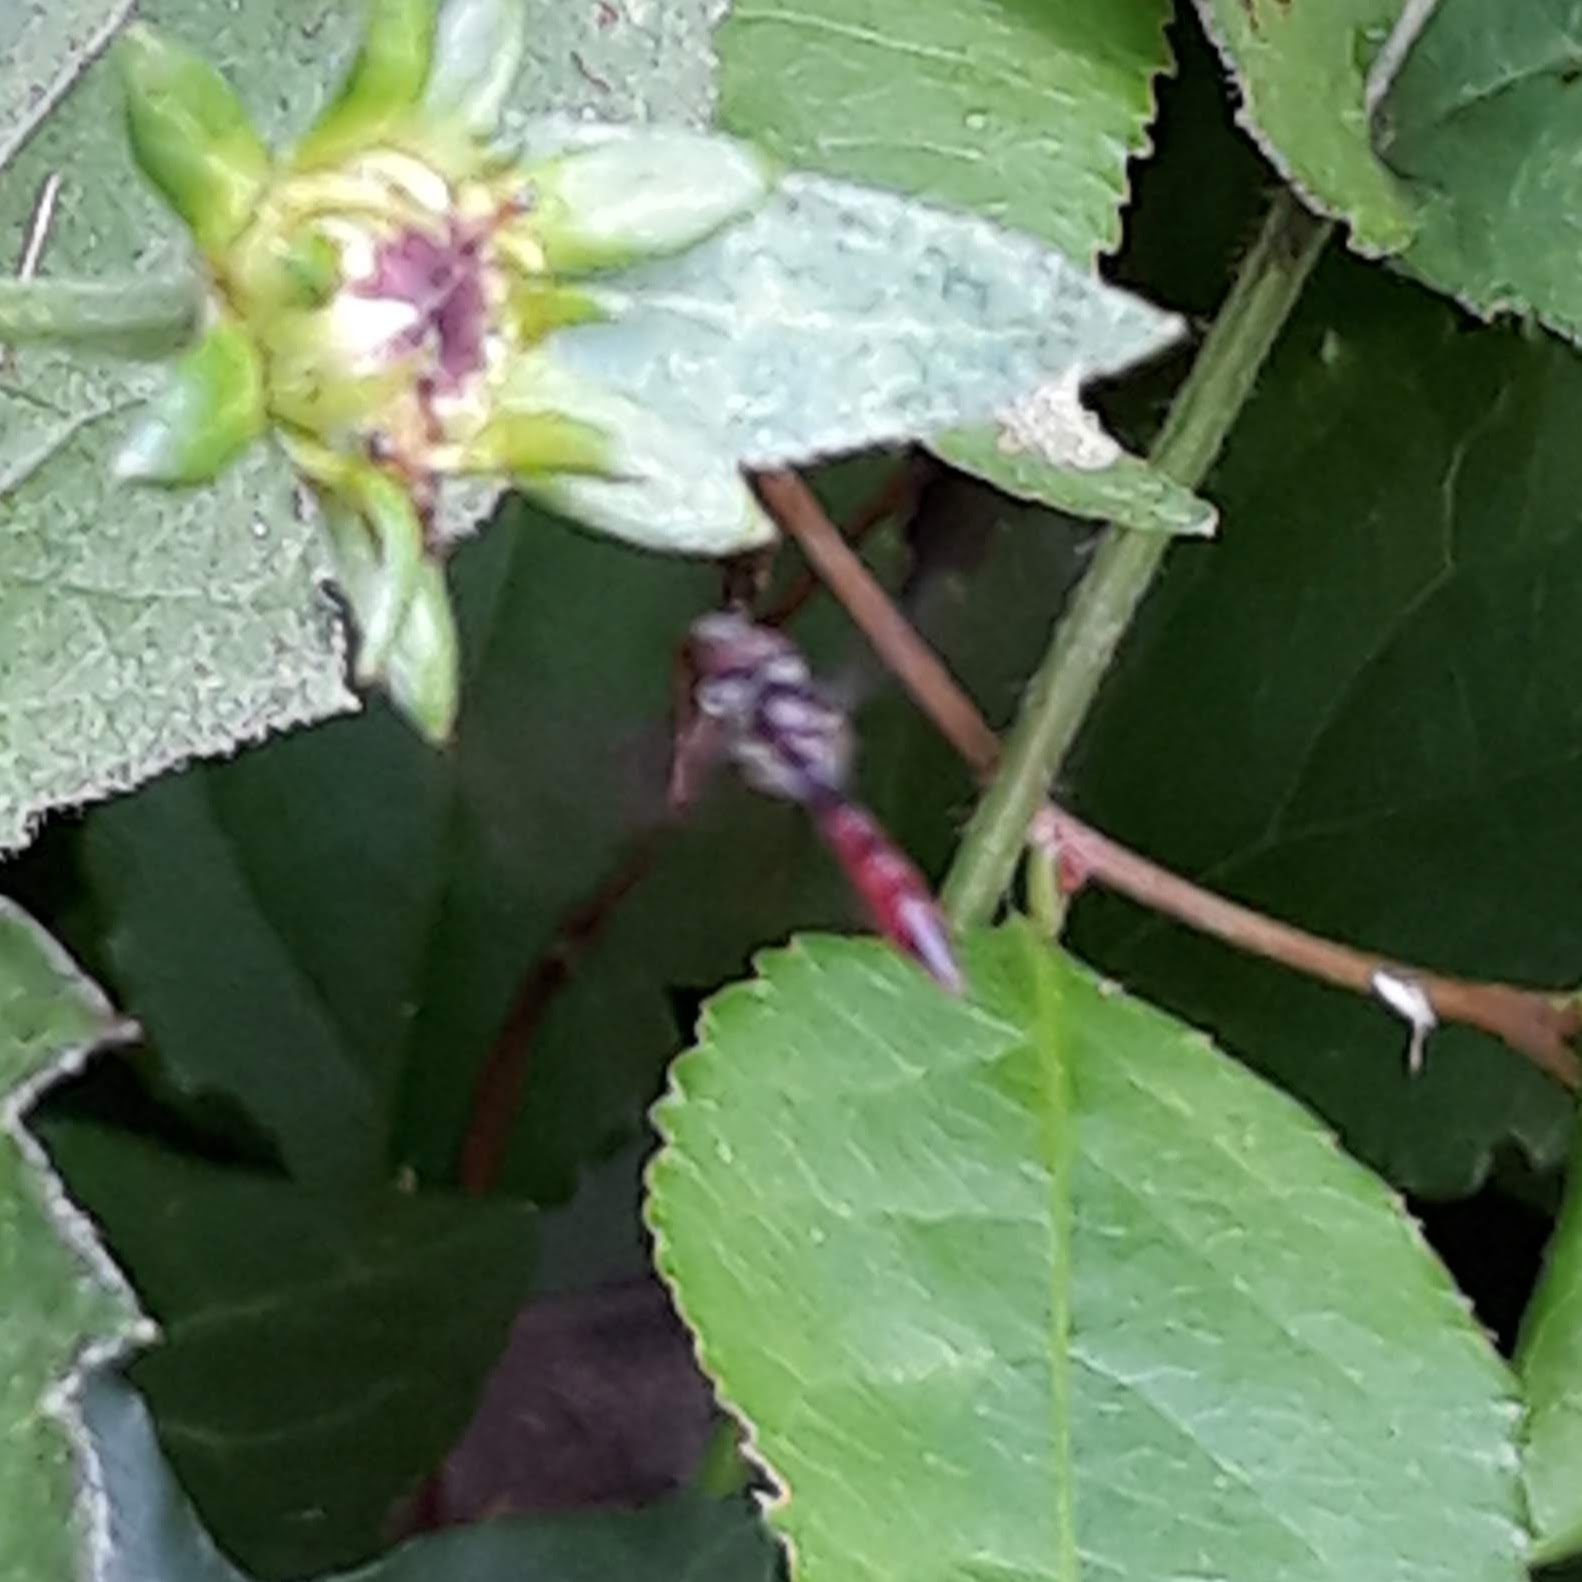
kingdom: Animalia
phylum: Arthropoda
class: Insecta
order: Diptera
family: Syrphidae
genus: Ocyptamus
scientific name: Ocyptamus fuscipennis
